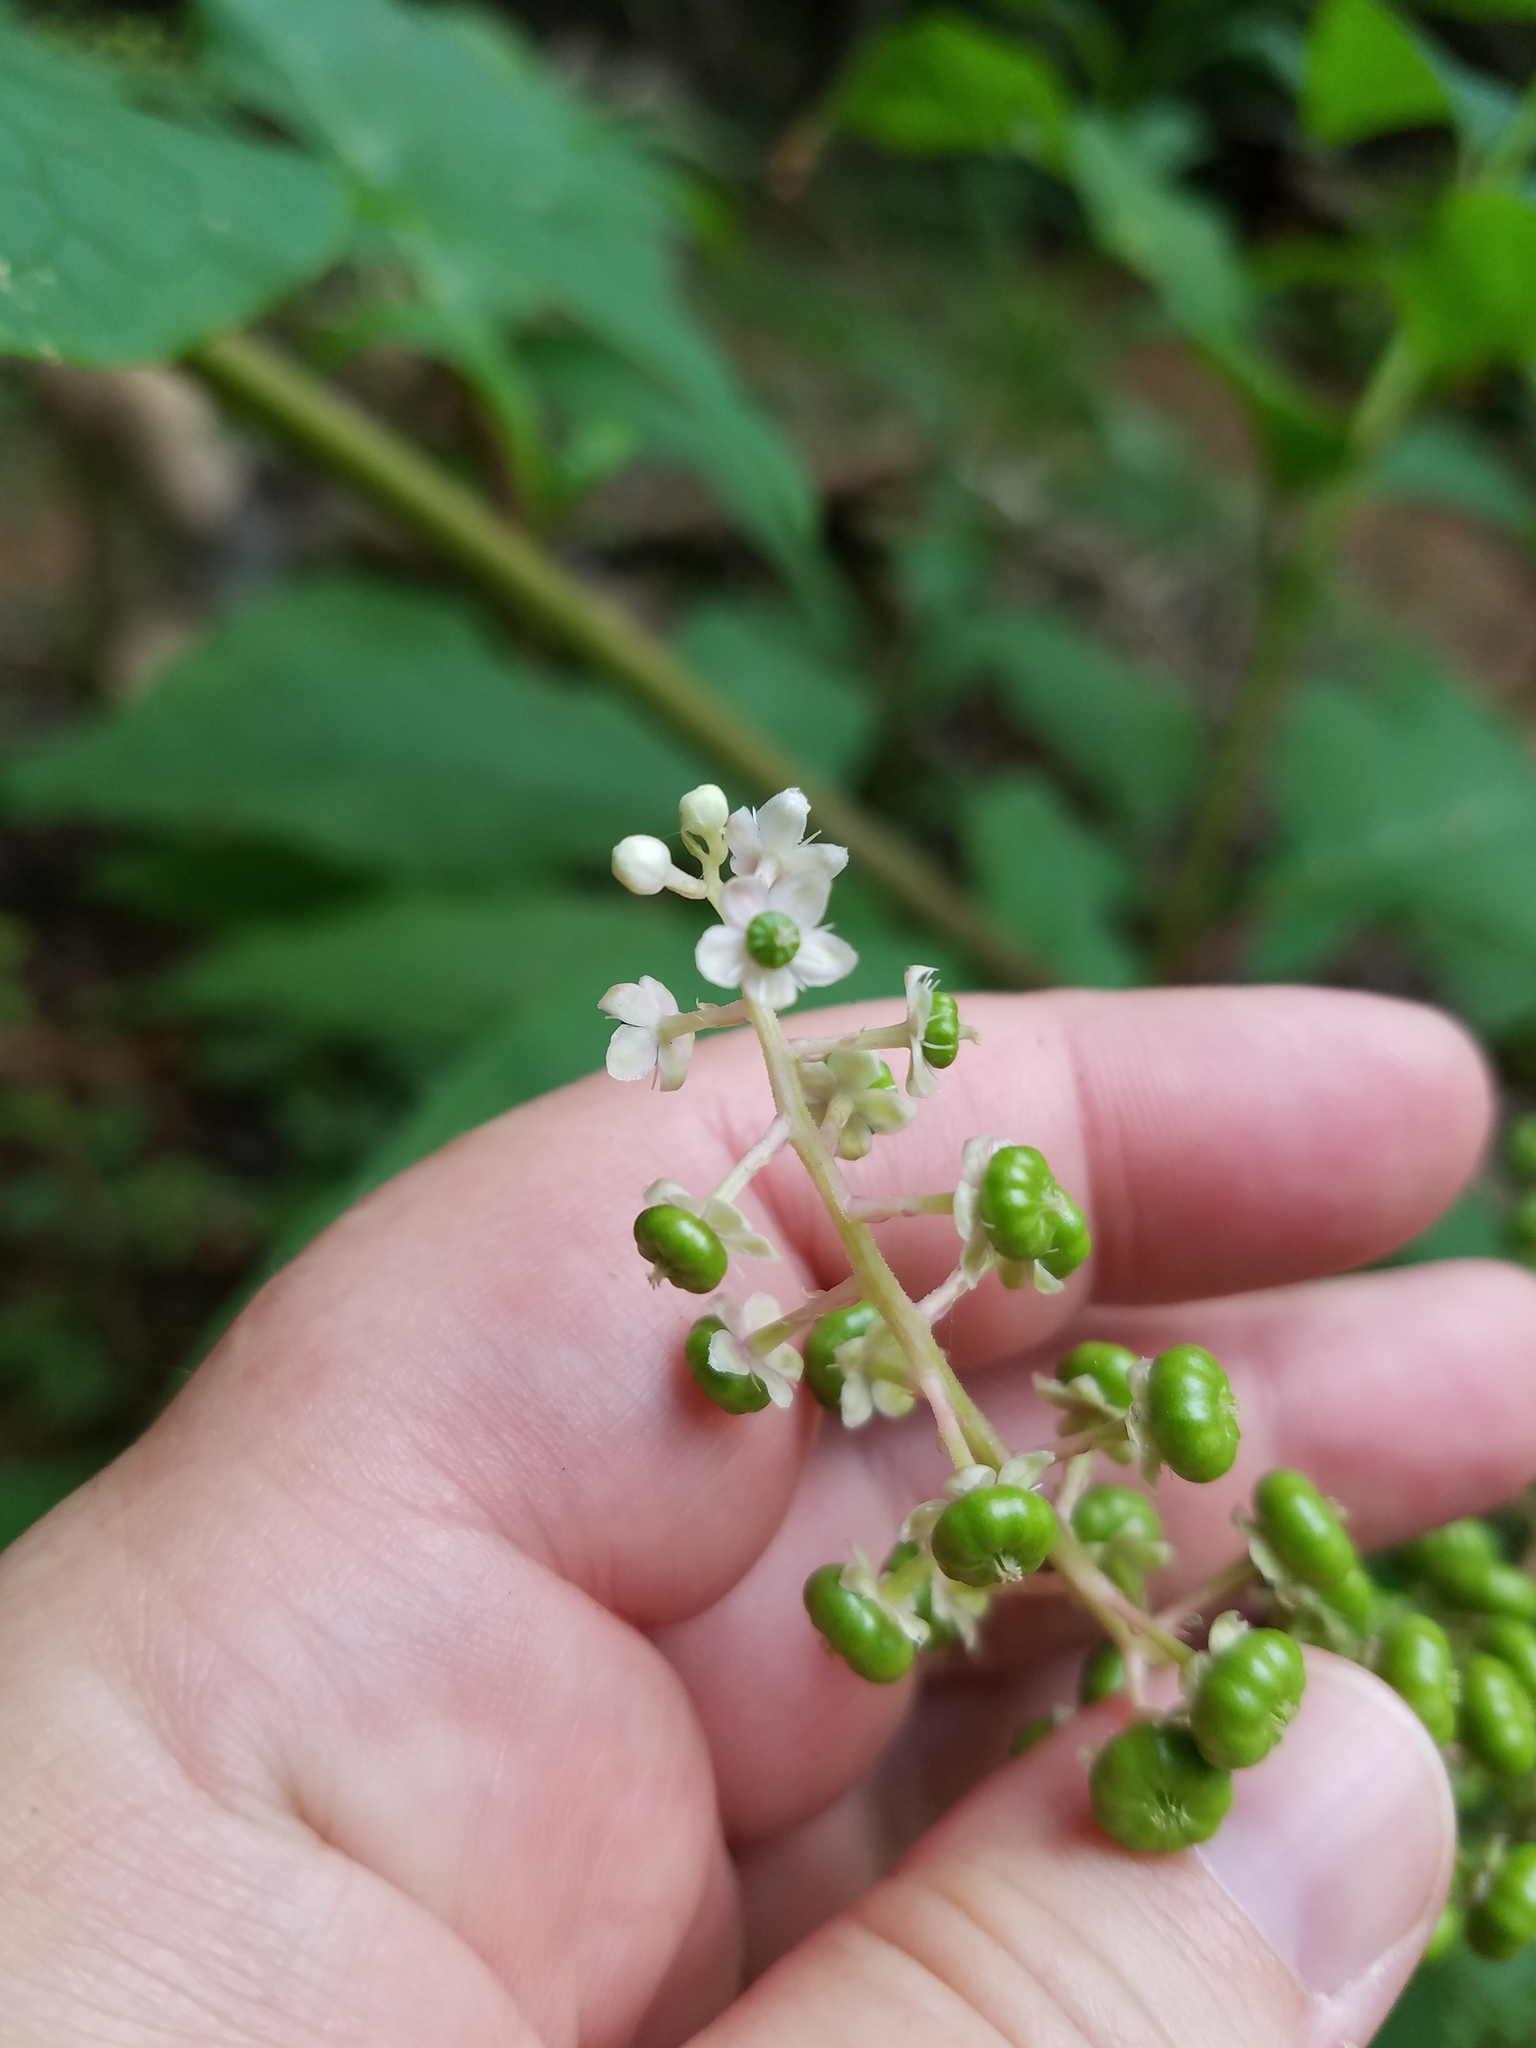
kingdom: Plantae
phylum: Tracheophyta
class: Magnoliopsida
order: Caryophyllales
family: Phytolaccaceae
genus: Phytolacca
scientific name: Phytolacca americana
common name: American pokeweed
